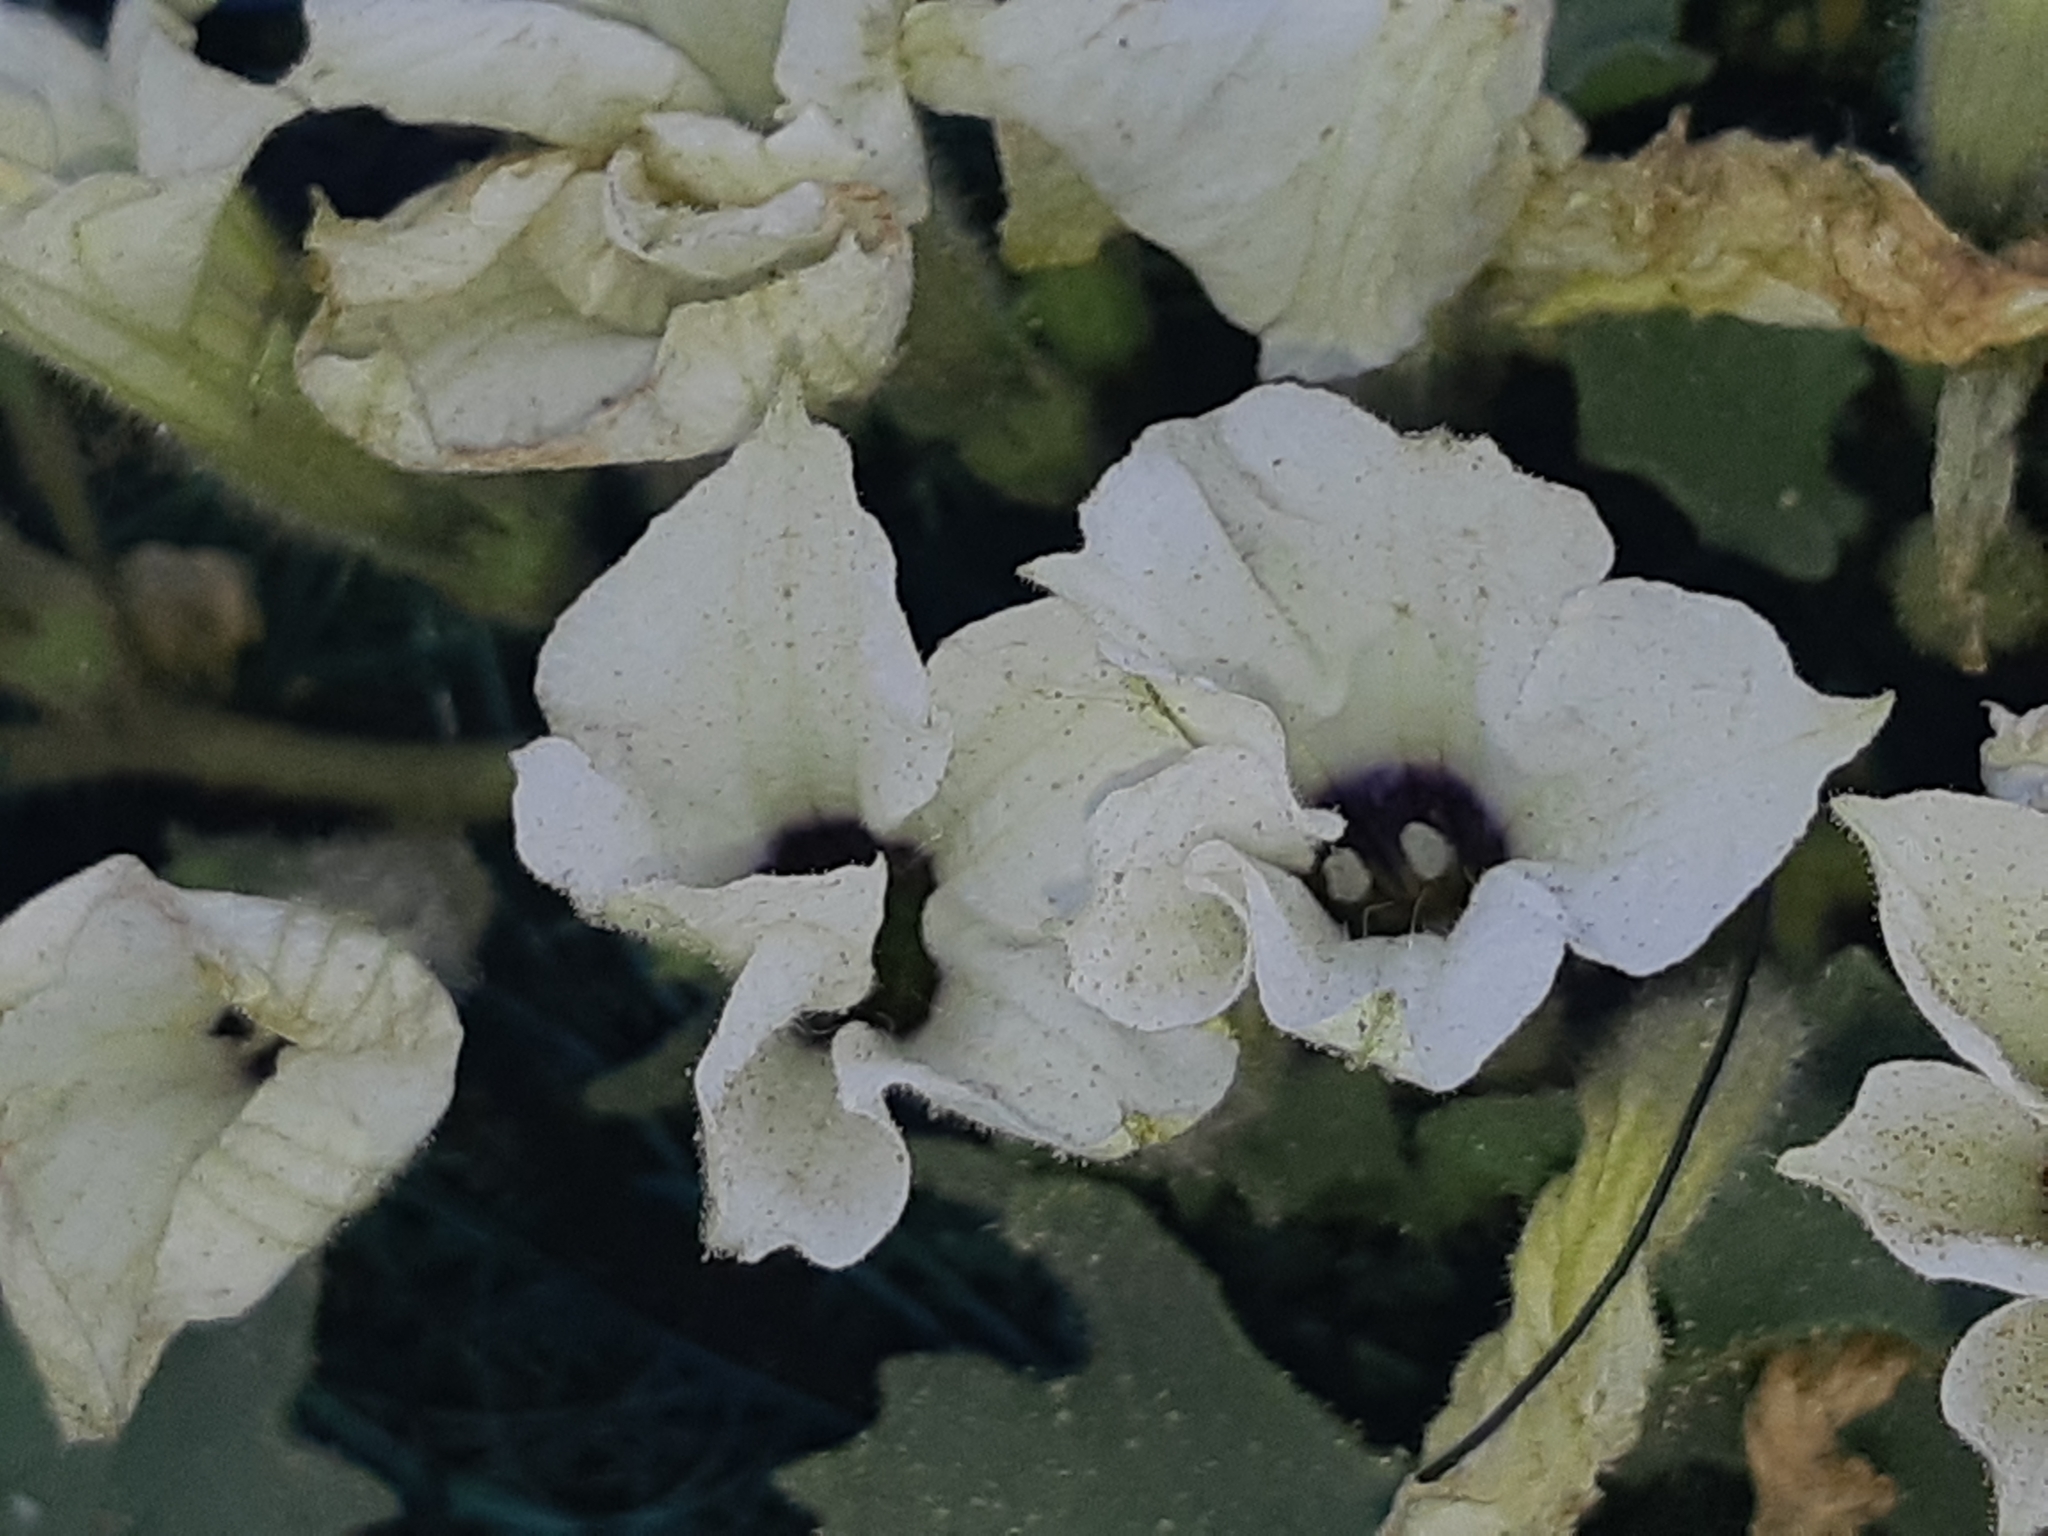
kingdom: Plantae
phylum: Tracheophyta
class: Magnoliopsida
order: Solanales
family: Solanaceae
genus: Exodeconus
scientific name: Exodeconus maritima
